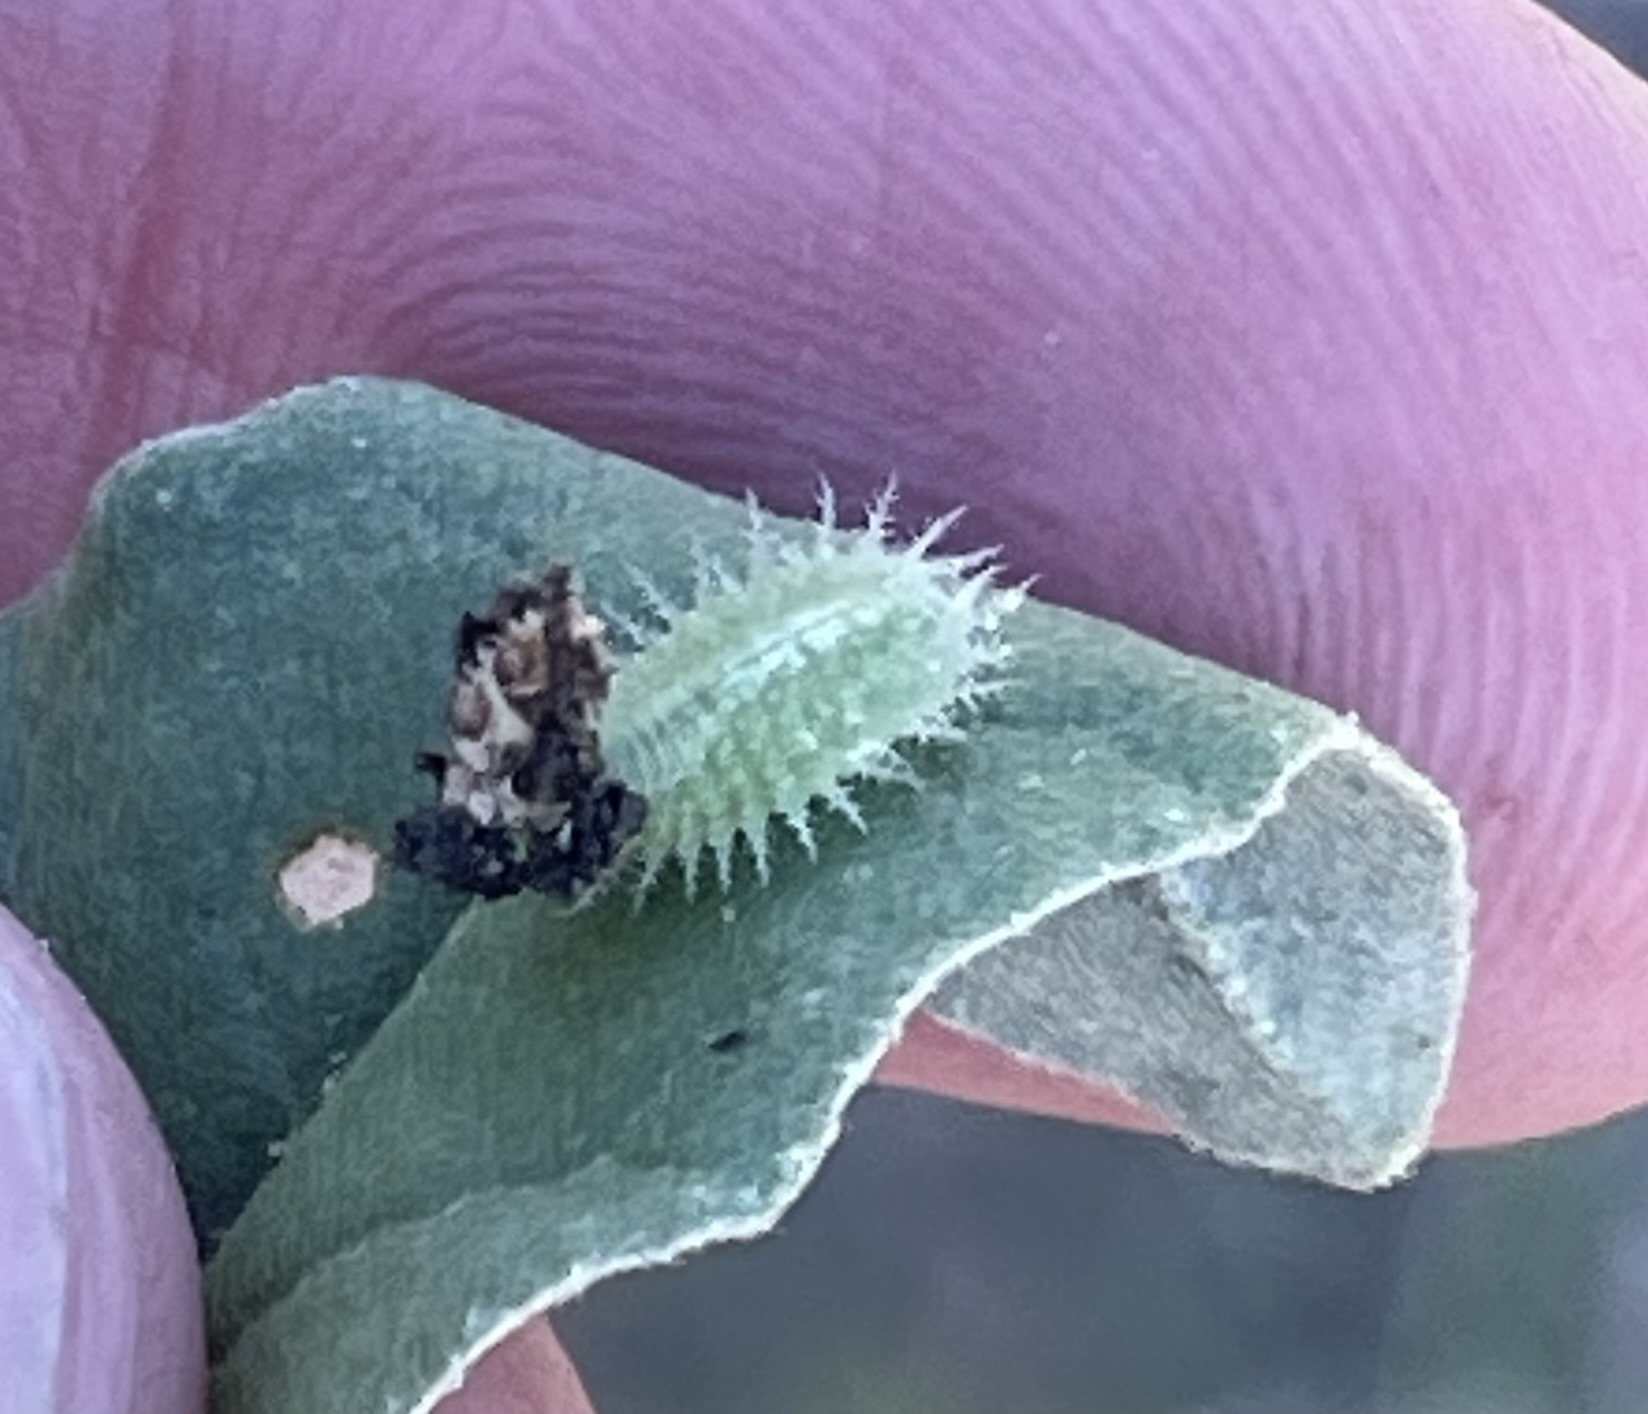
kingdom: Animalia
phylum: Arthropoda
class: Insecta
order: Coleoptera
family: Chrysomelidae
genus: Gratiana
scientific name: Gratiana pallidula
